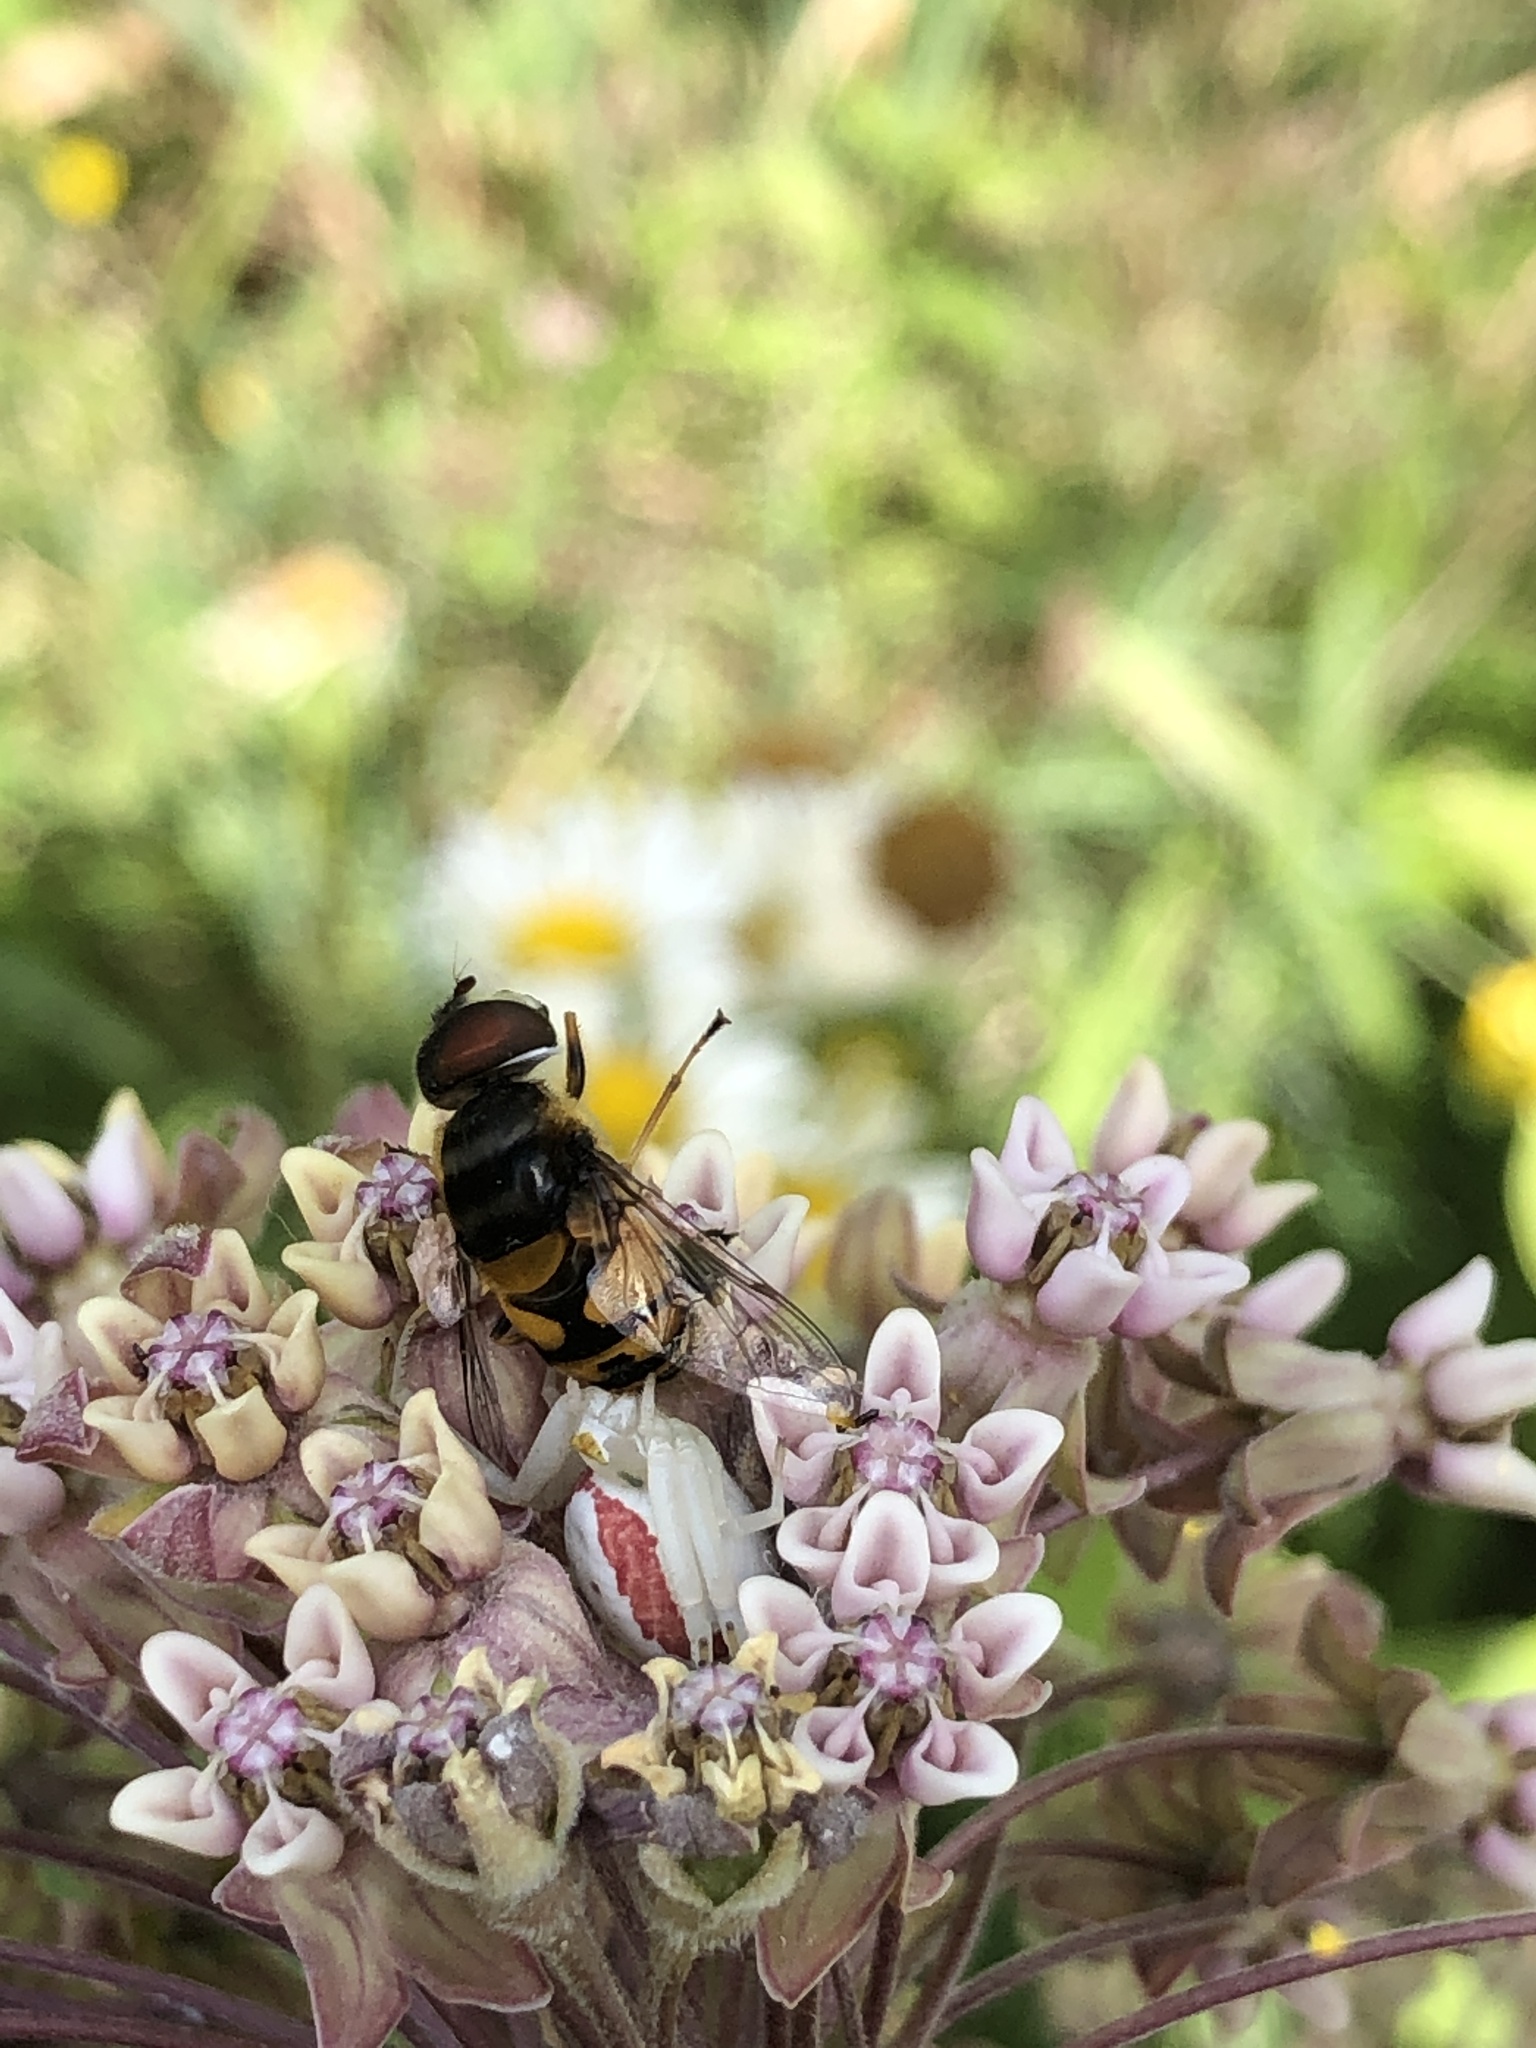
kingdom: Animalia
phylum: Arthropoda
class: Insecta
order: Diptera
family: Syrphidae
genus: Eristalis
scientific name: Eristalis transversa
